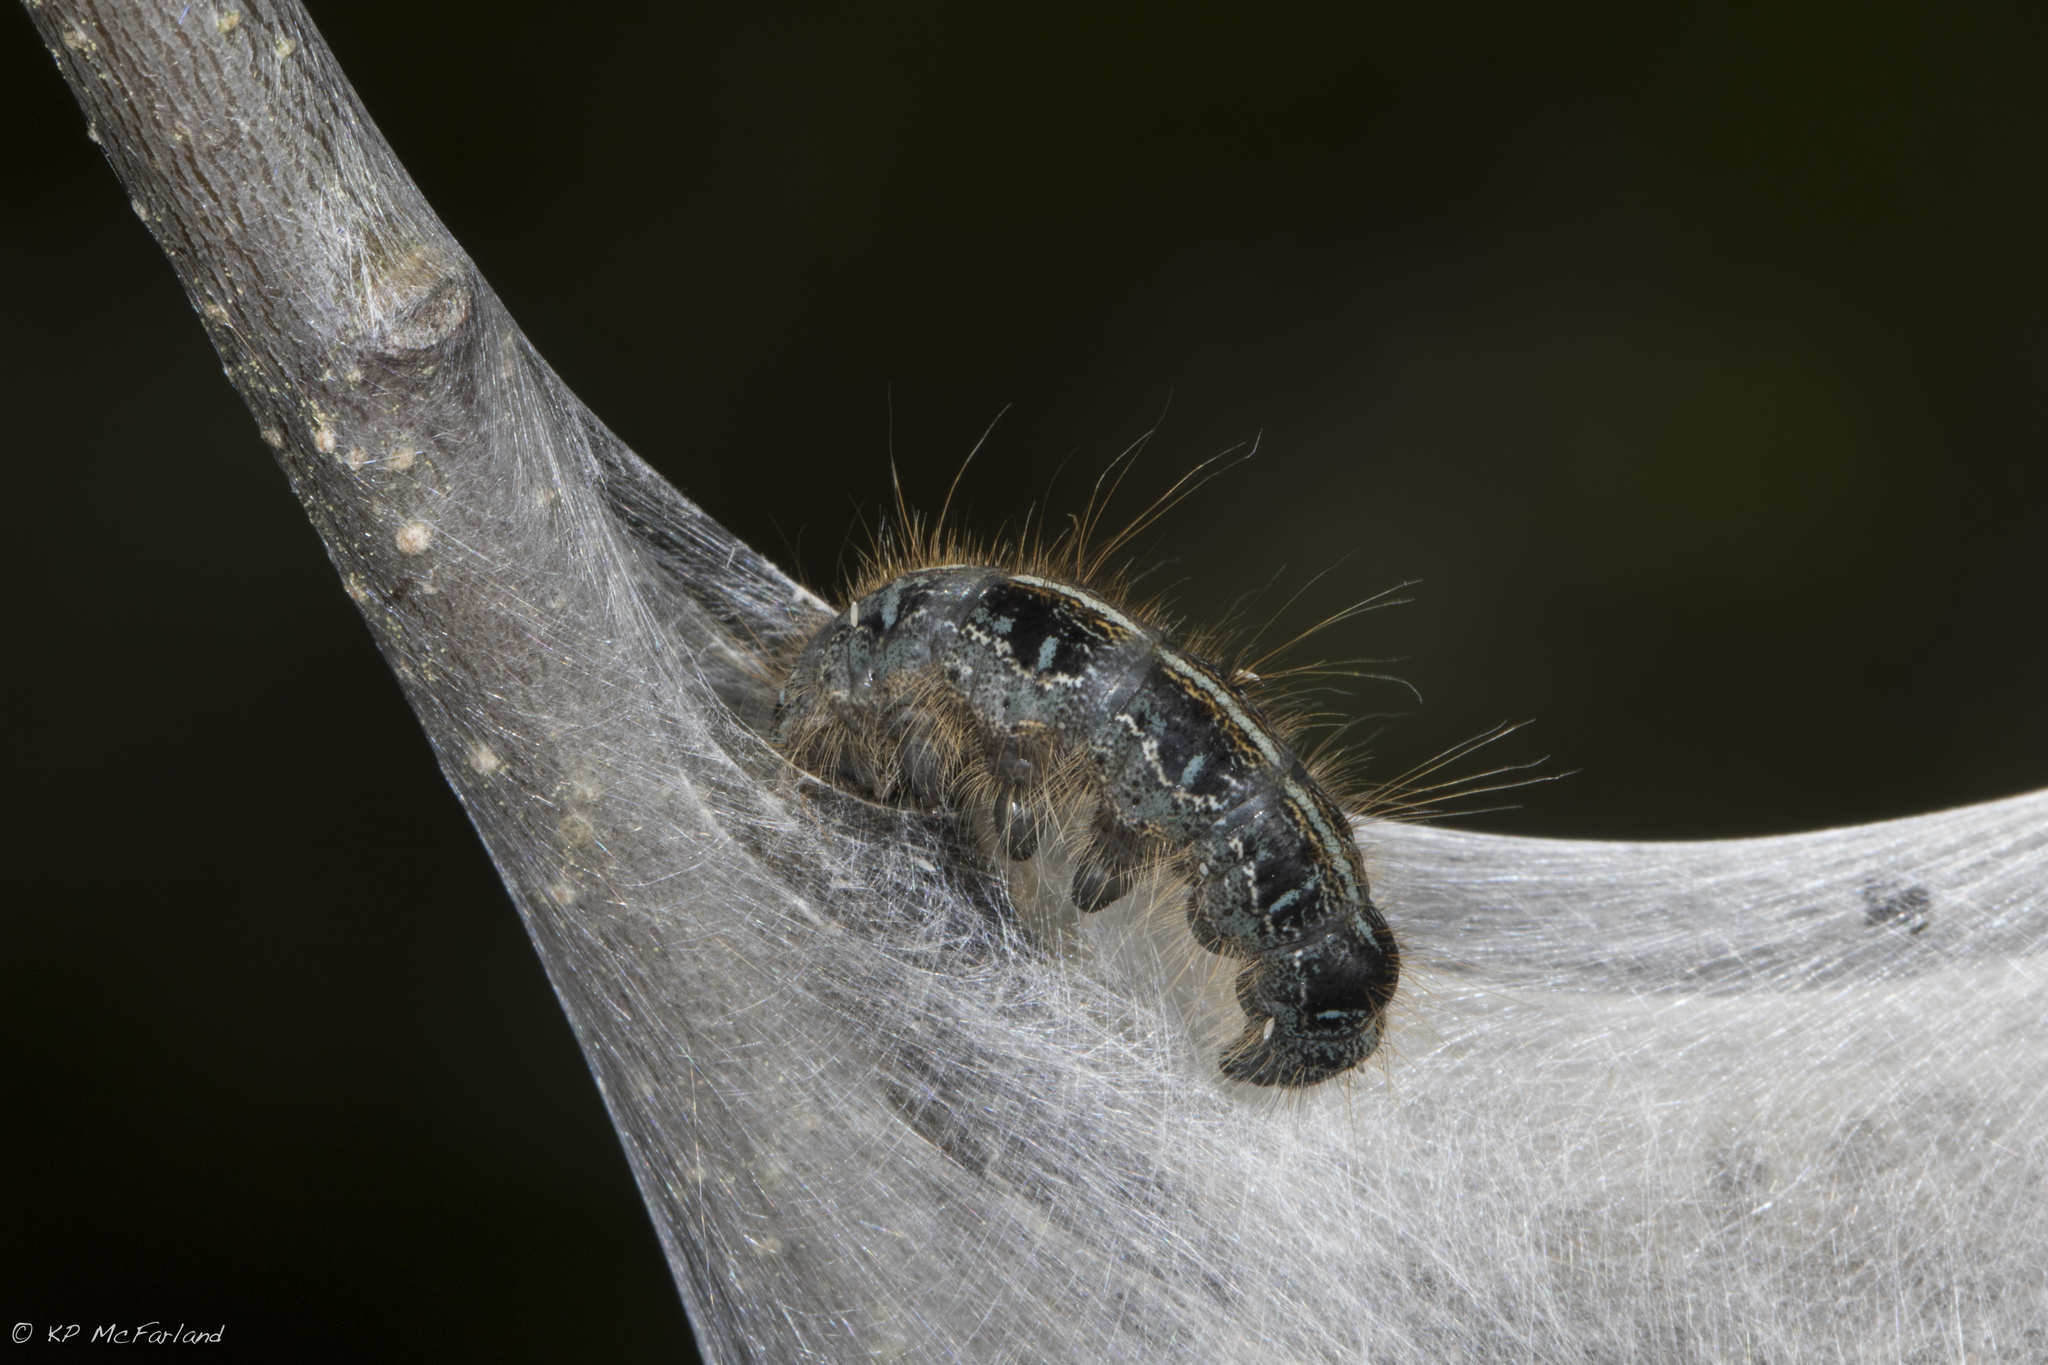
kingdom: Animalia
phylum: Arthropoda
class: Insecta
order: Lepidoptera
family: Lasiocampidae
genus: Malacosoma
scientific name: Malacosoma americana
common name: Eastern tent caterpillar moth
